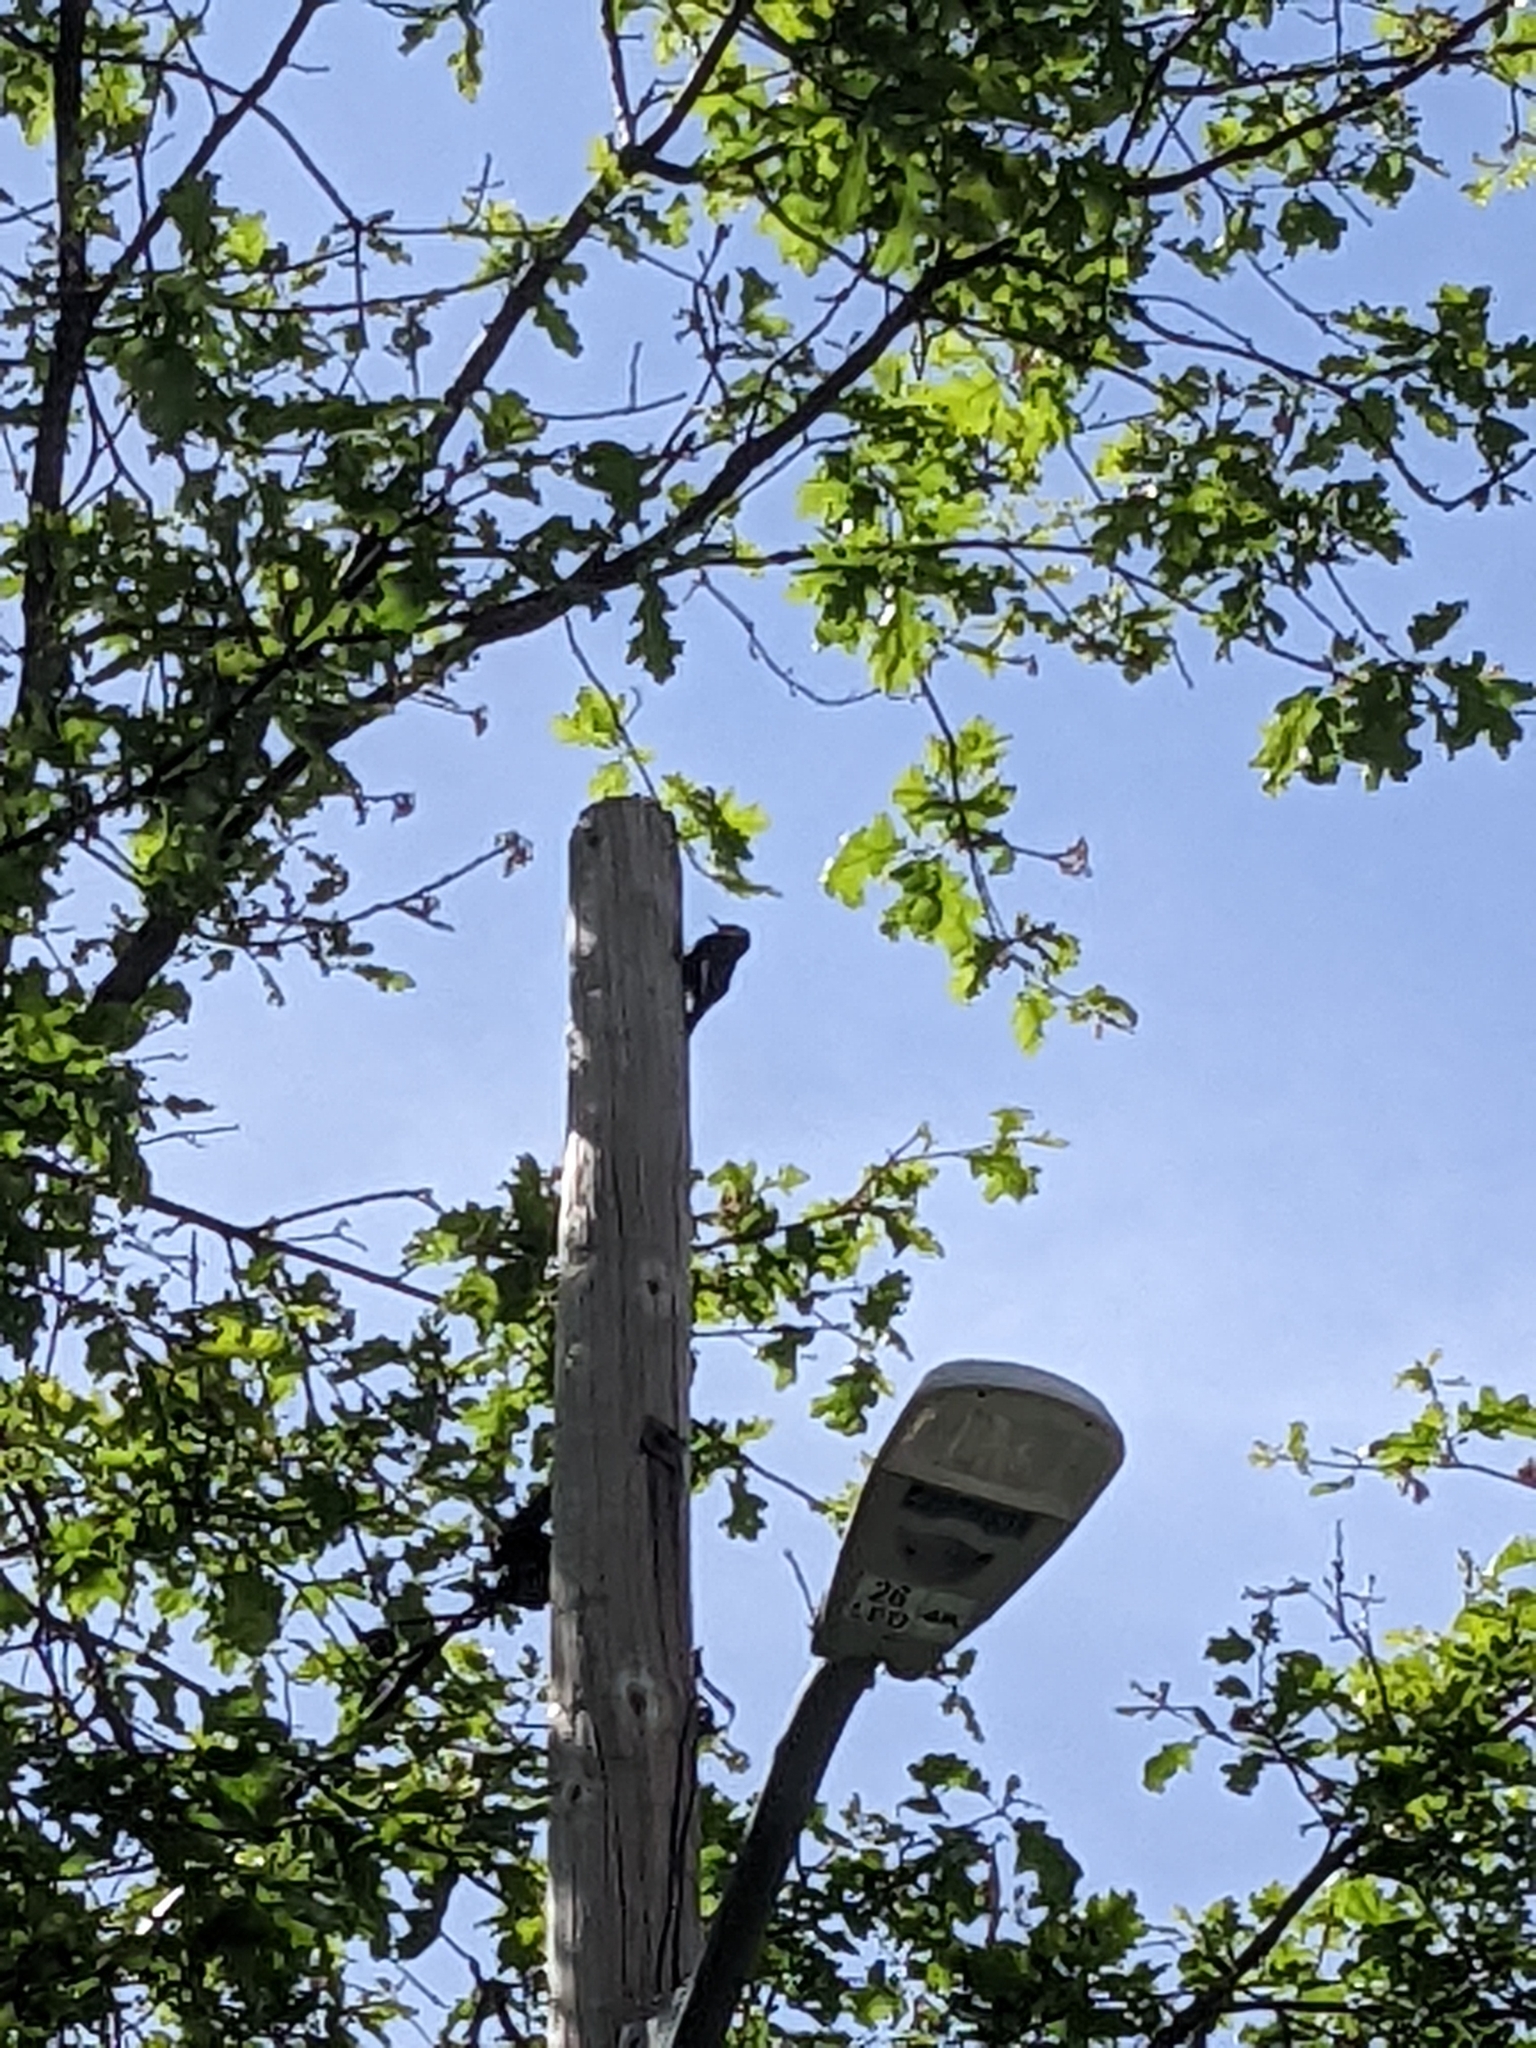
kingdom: Animalia
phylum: Chordata
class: Aves
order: Piciformes
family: Picidae
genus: Leuconotopicus
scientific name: Leuconotopicus albolarvatus
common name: White-headed woodpecker
